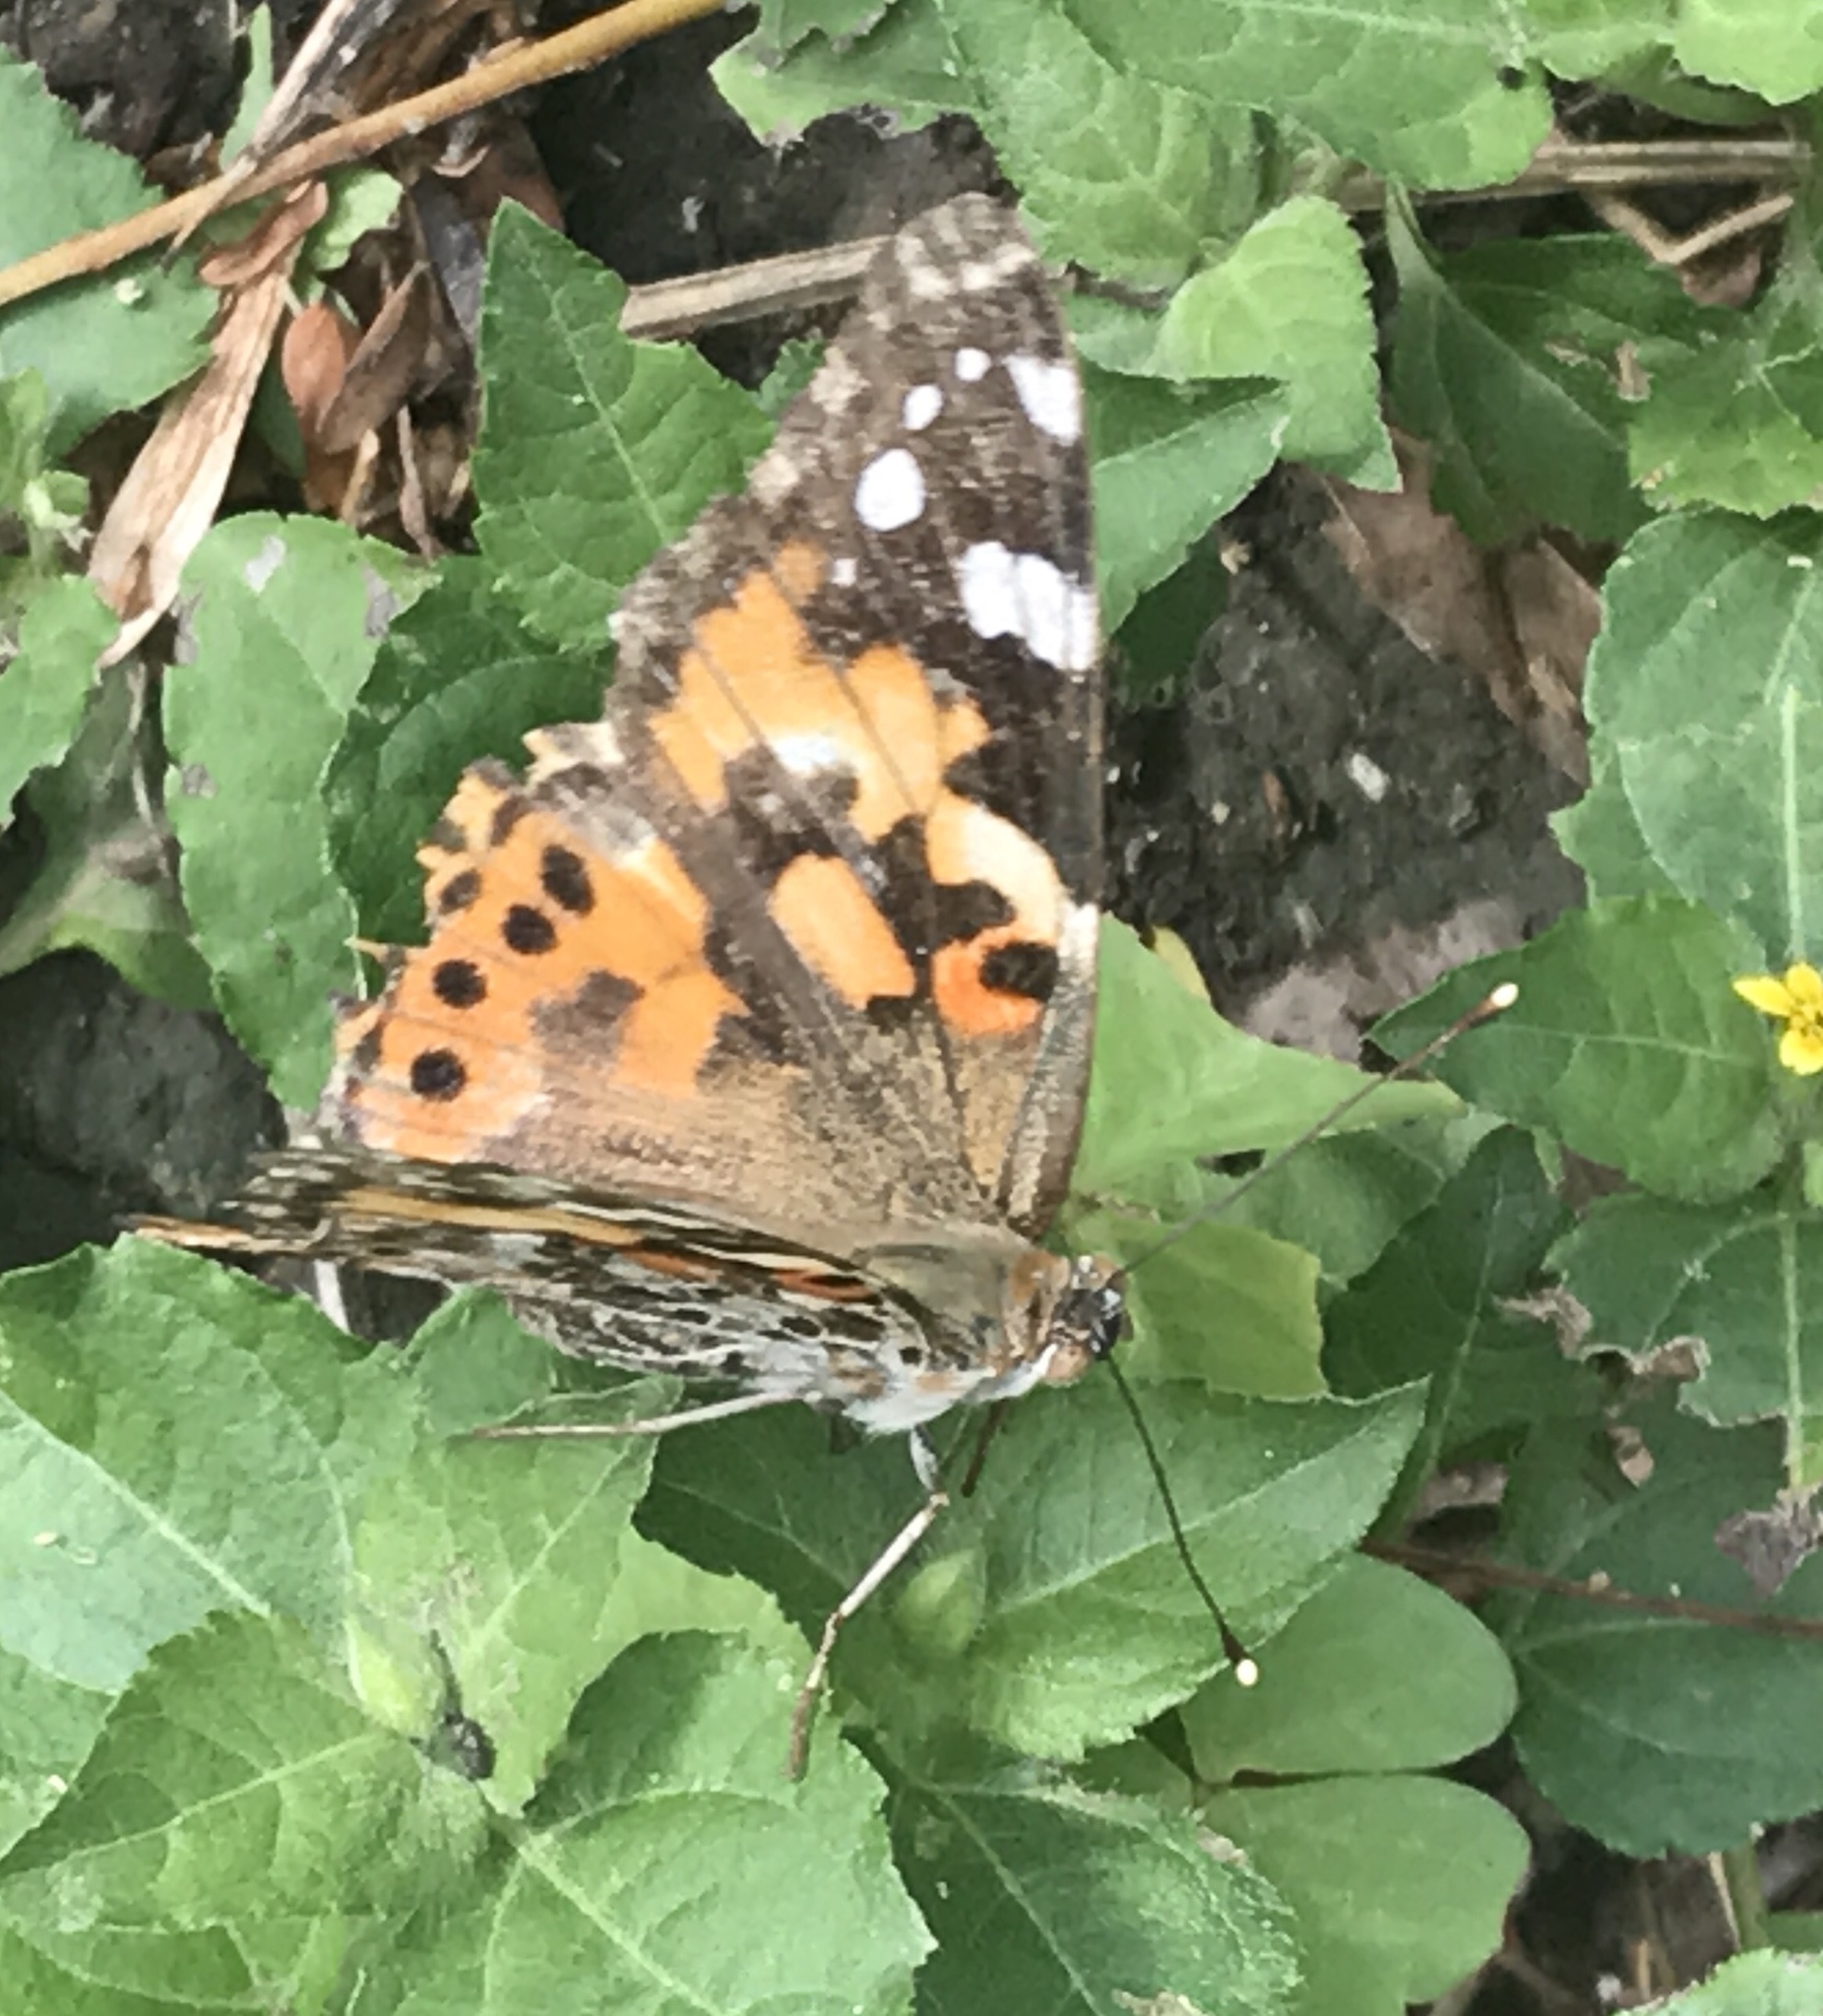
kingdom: Animalia
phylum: Arthropoda
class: Insecta
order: Lepidoptera
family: Nymphalidae
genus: Vanessa
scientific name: Vanessa cardui
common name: Painted lady
